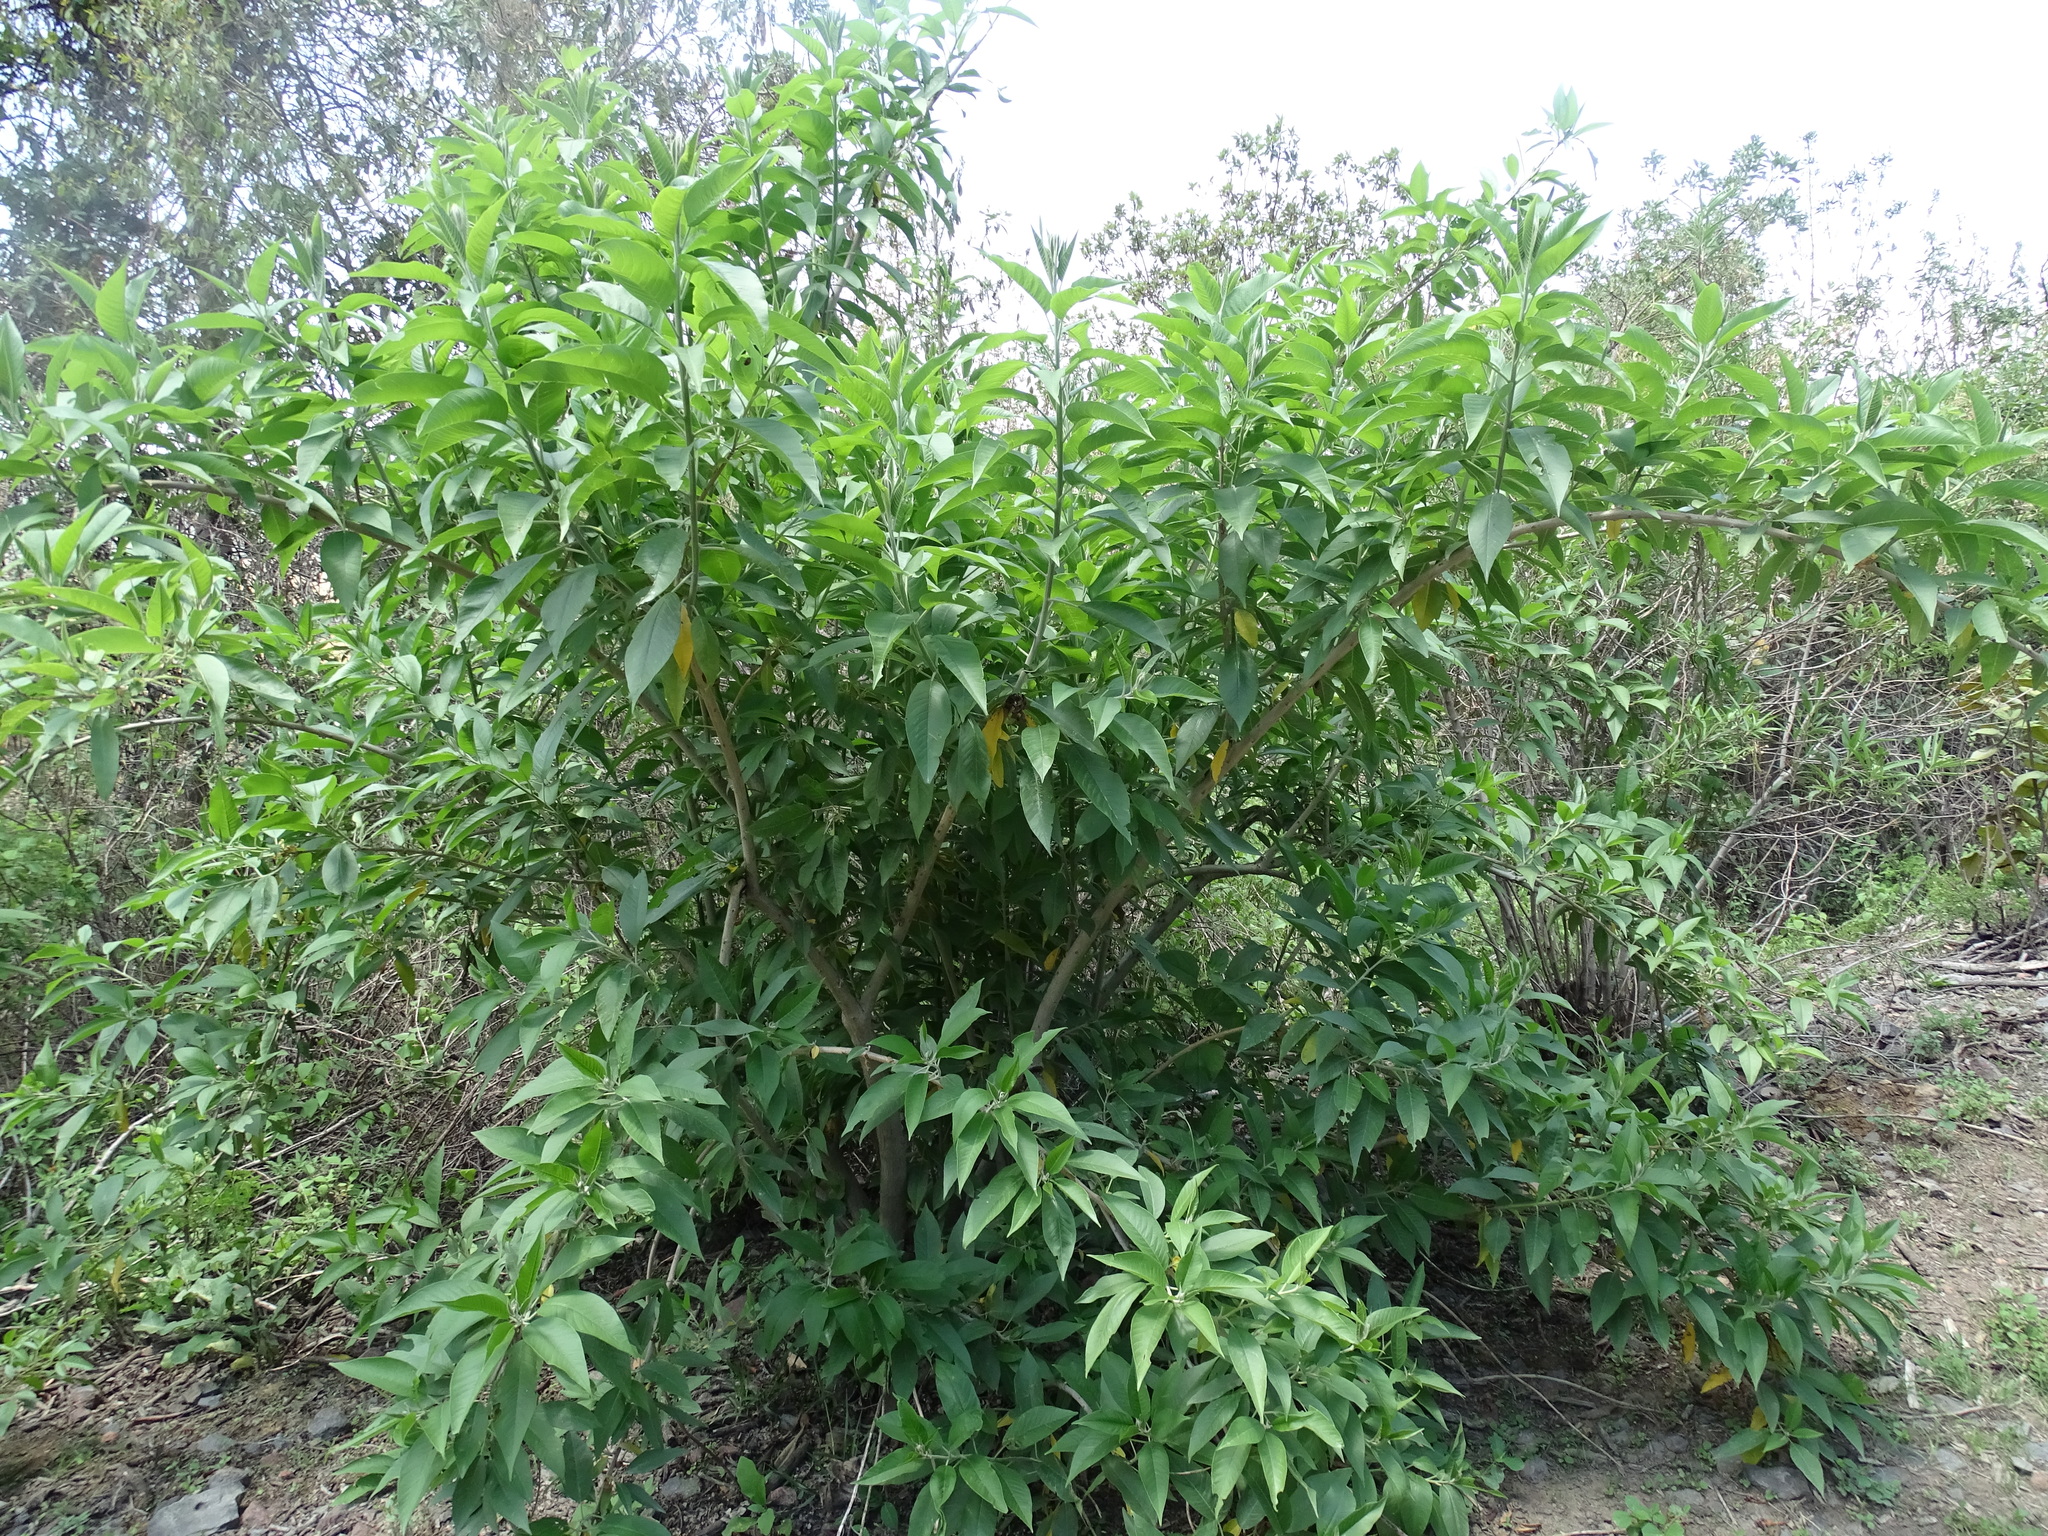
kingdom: Plantae
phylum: Tracheophyta
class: Magnoliopsida
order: Solanales
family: Convolvulaceae
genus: Ipomoea
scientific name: Ipomoea murucoides
